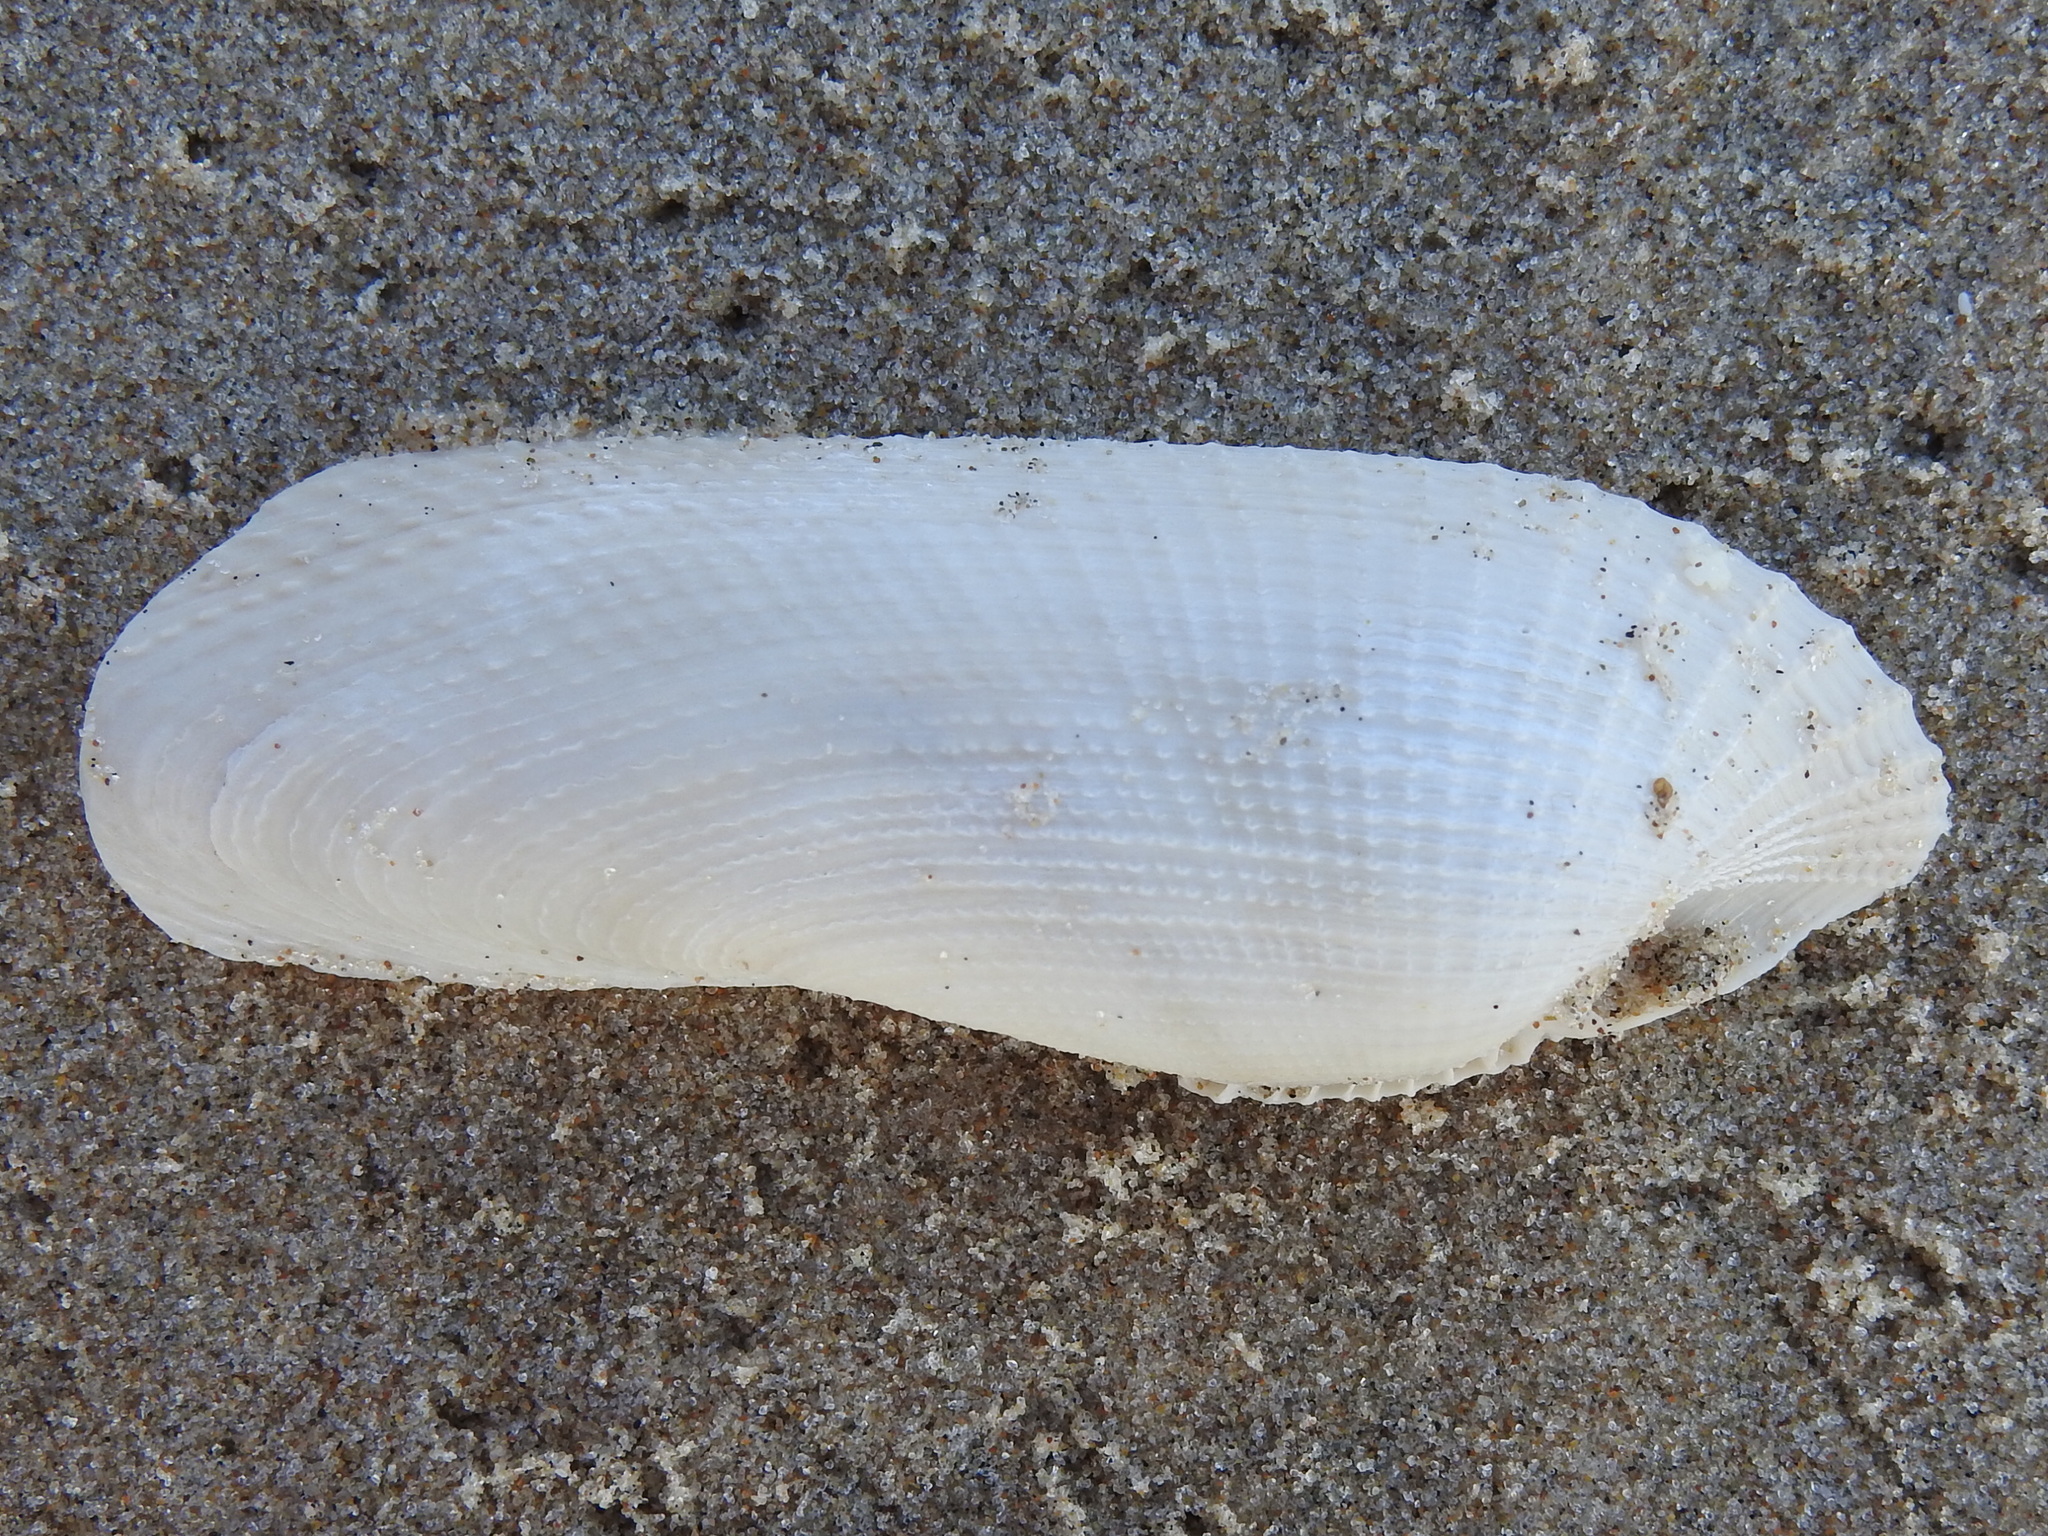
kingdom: Animalia
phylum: Mollusca
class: Bivalvia
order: Myida
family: Pholadidae
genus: Pholas
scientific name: Pholas campechiensis
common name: Campeche angel wing
